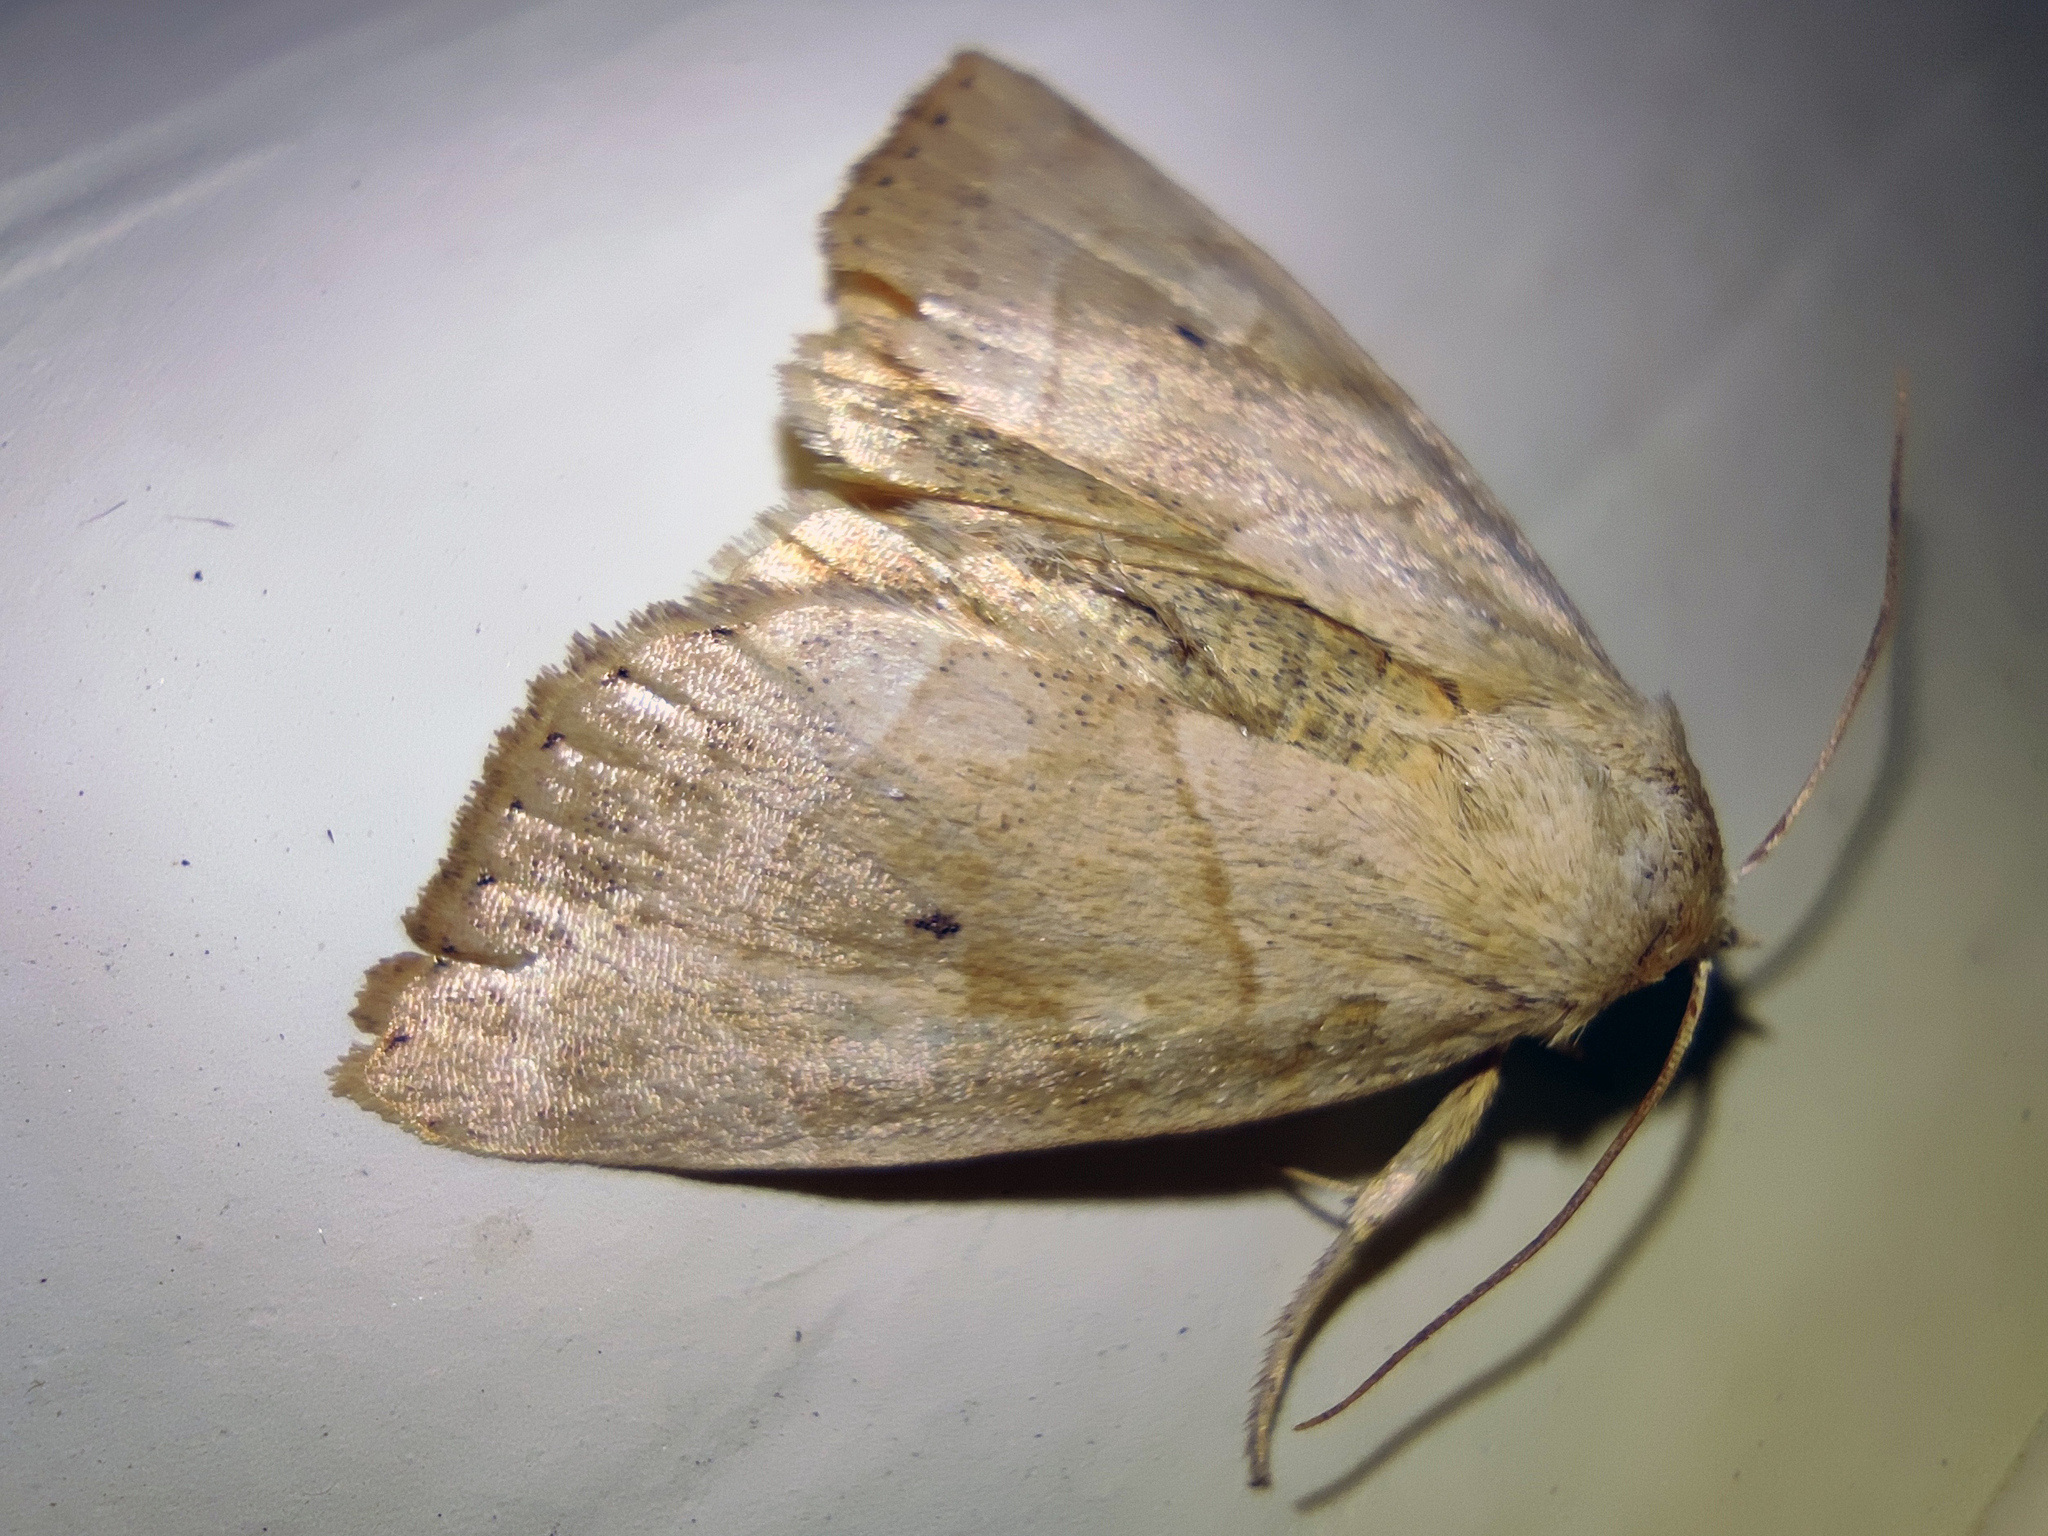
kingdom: Animalia
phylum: Arthropoda
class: Insecta
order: Lepidoptera
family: Noctuidae
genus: Cosmia
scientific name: Cosmia trapezina
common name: Dun-bar
